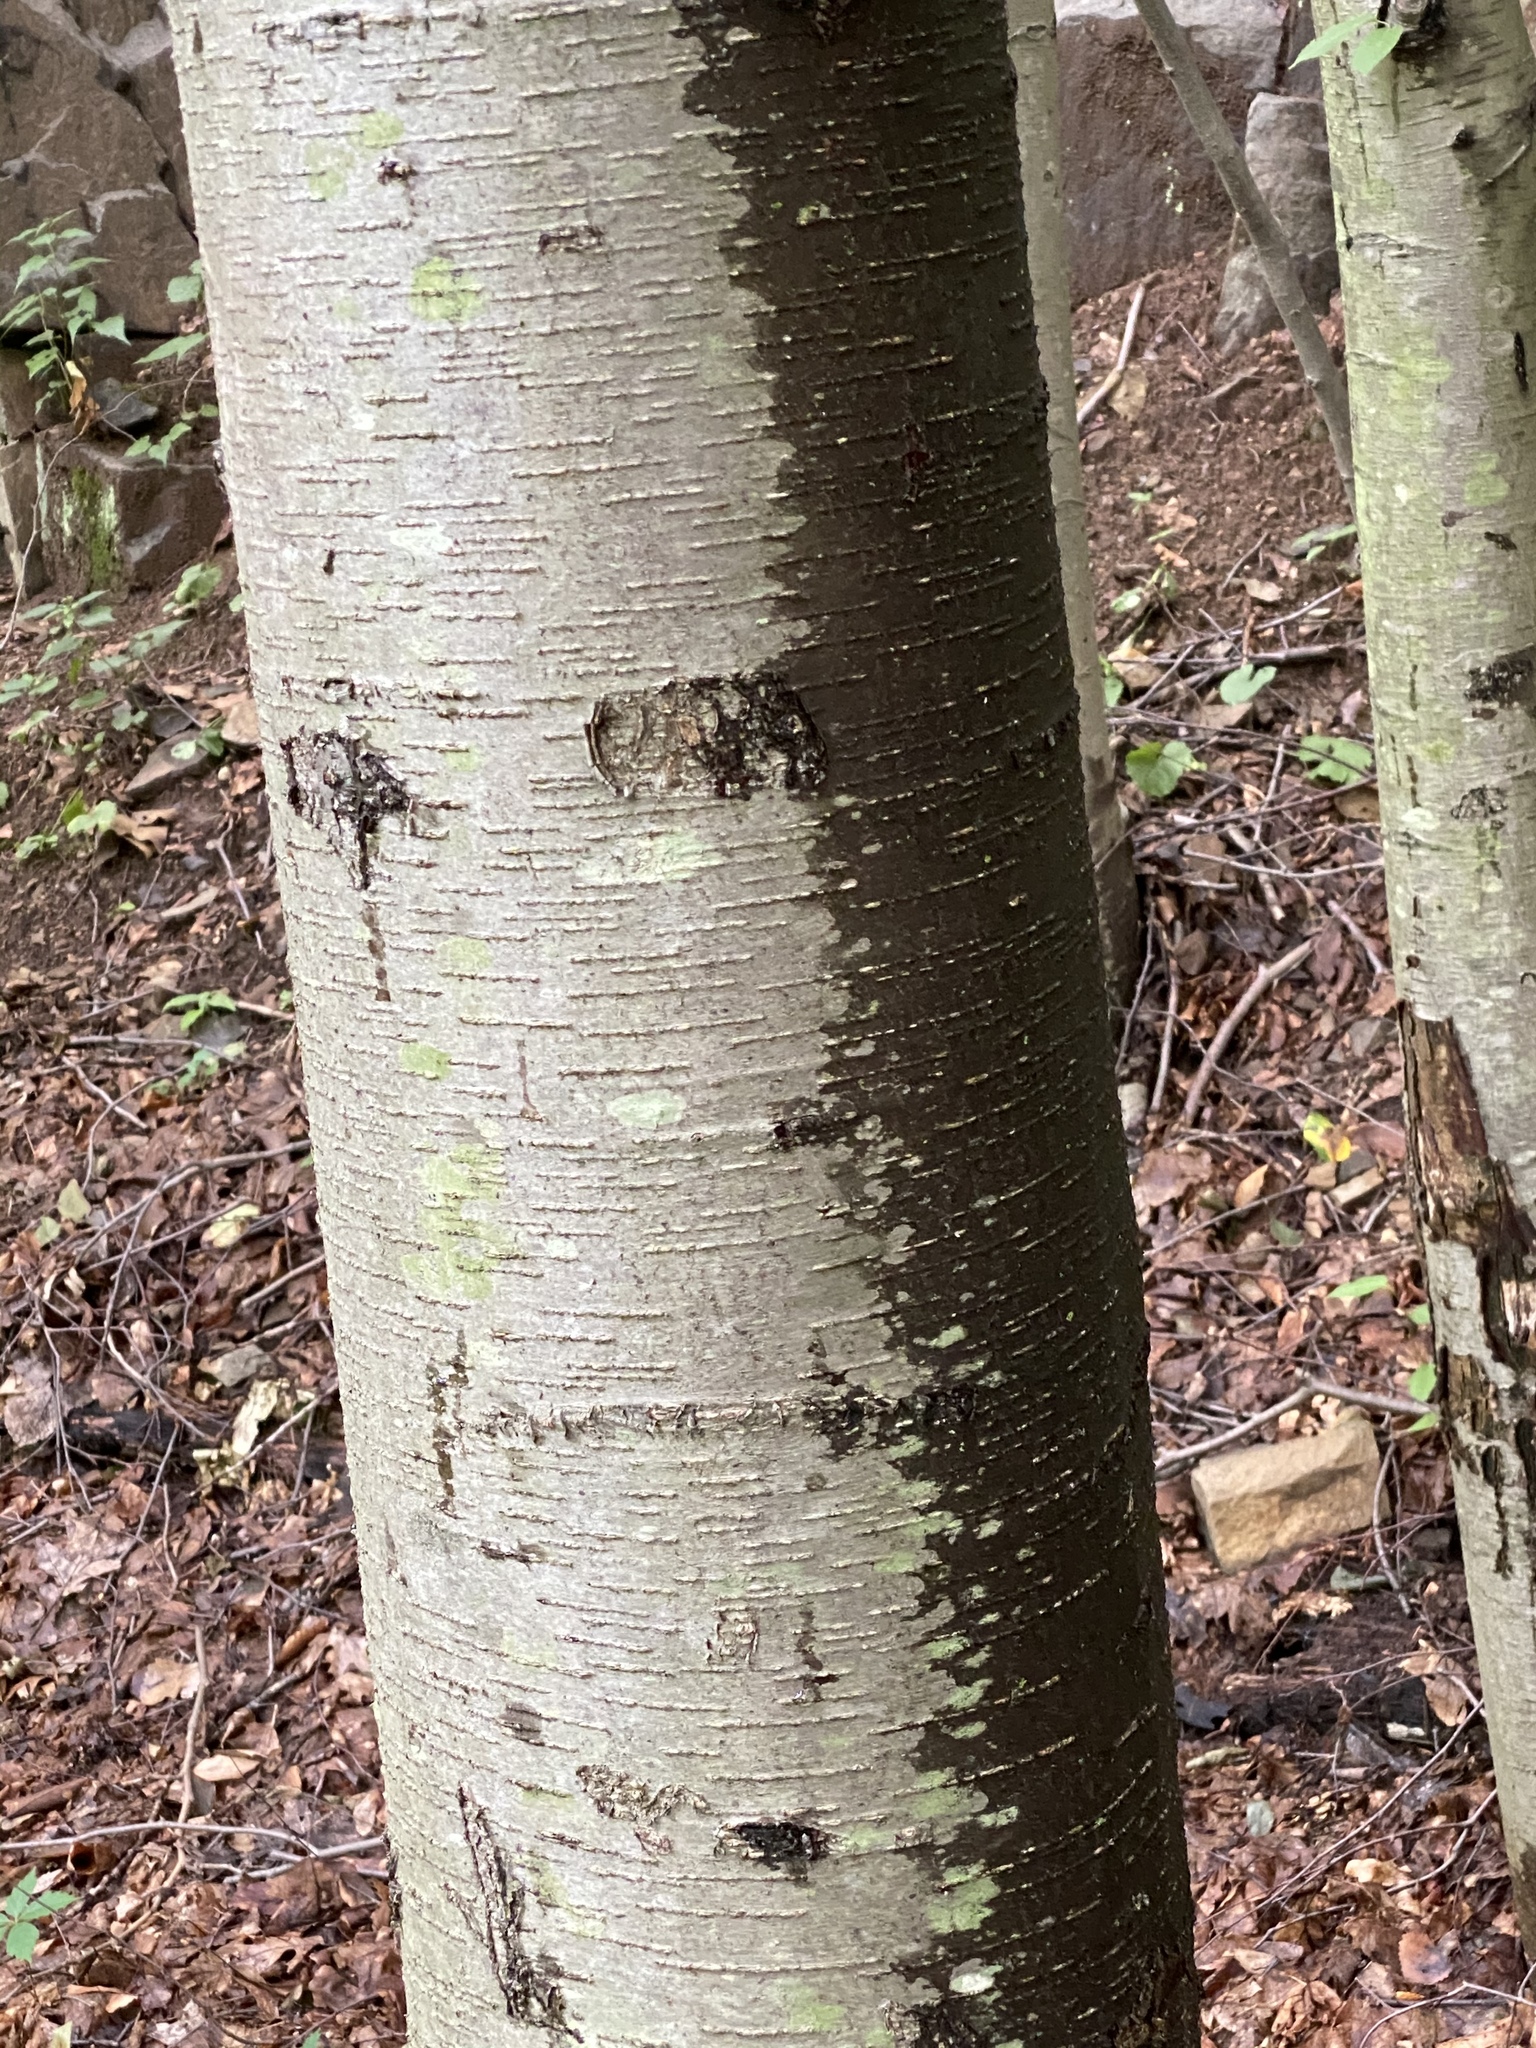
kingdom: Plantae
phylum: Tracheophyta
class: Magnoliopsida
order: Fagales
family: Betulaceae
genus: Betula
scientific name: Betula lenta
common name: Black birch
